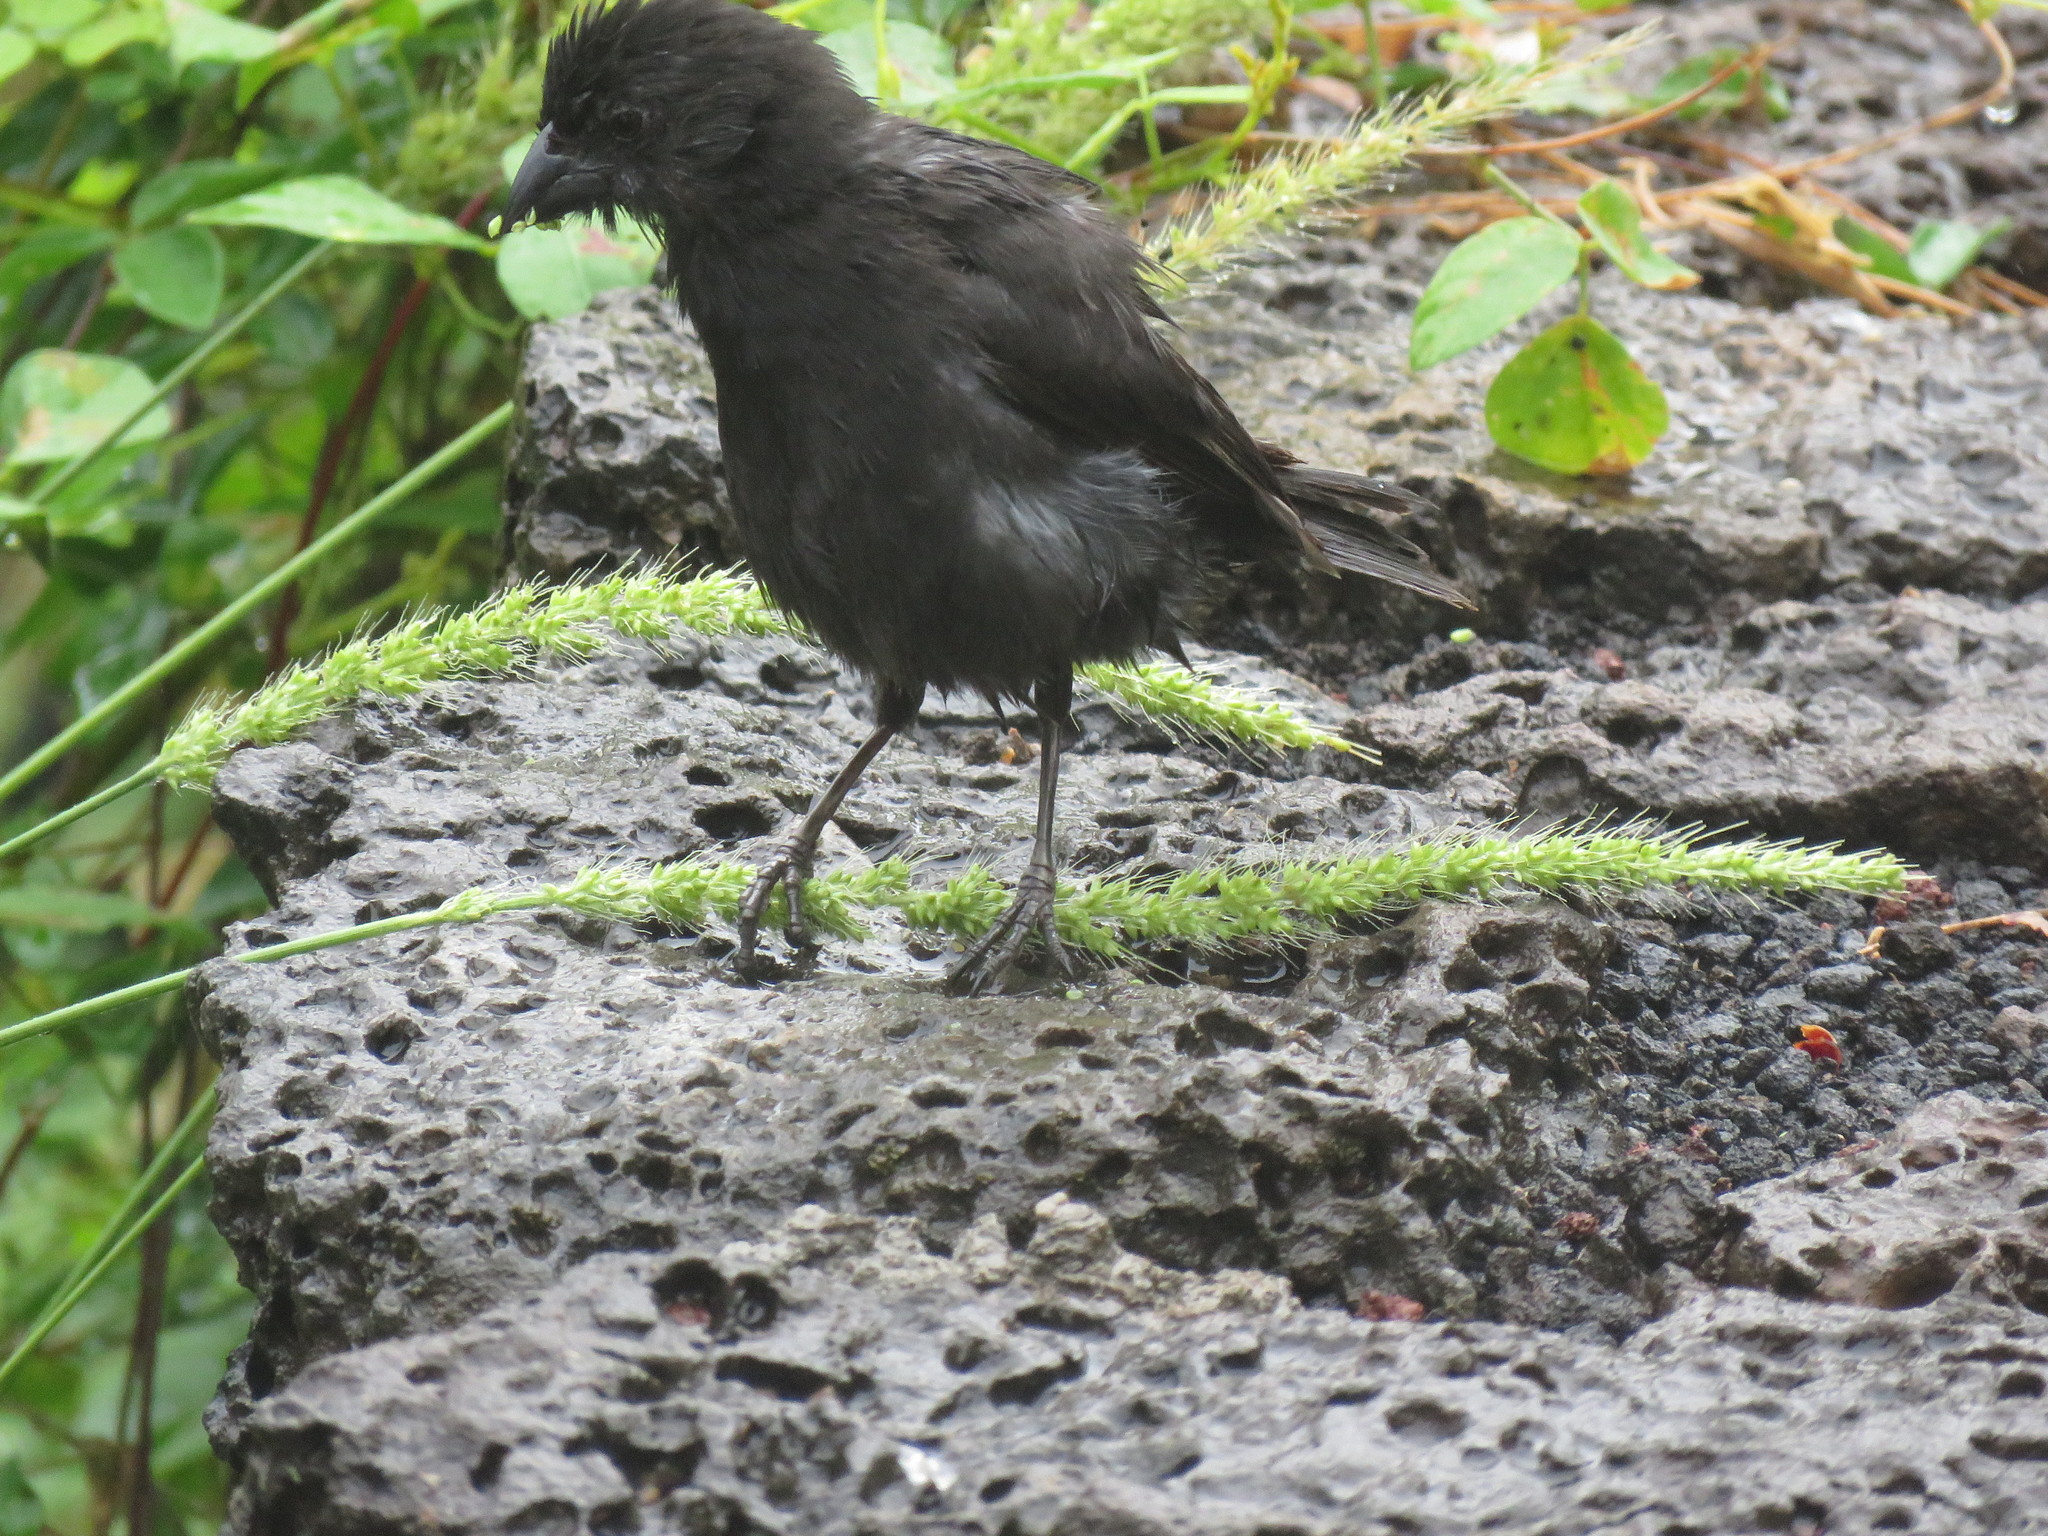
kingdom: Animalia
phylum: Chordata
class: Aves
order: Passeriformes
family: Thraupidae
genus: Geospiza
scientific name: Geospiza fuliginosa
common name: Small ground finch
